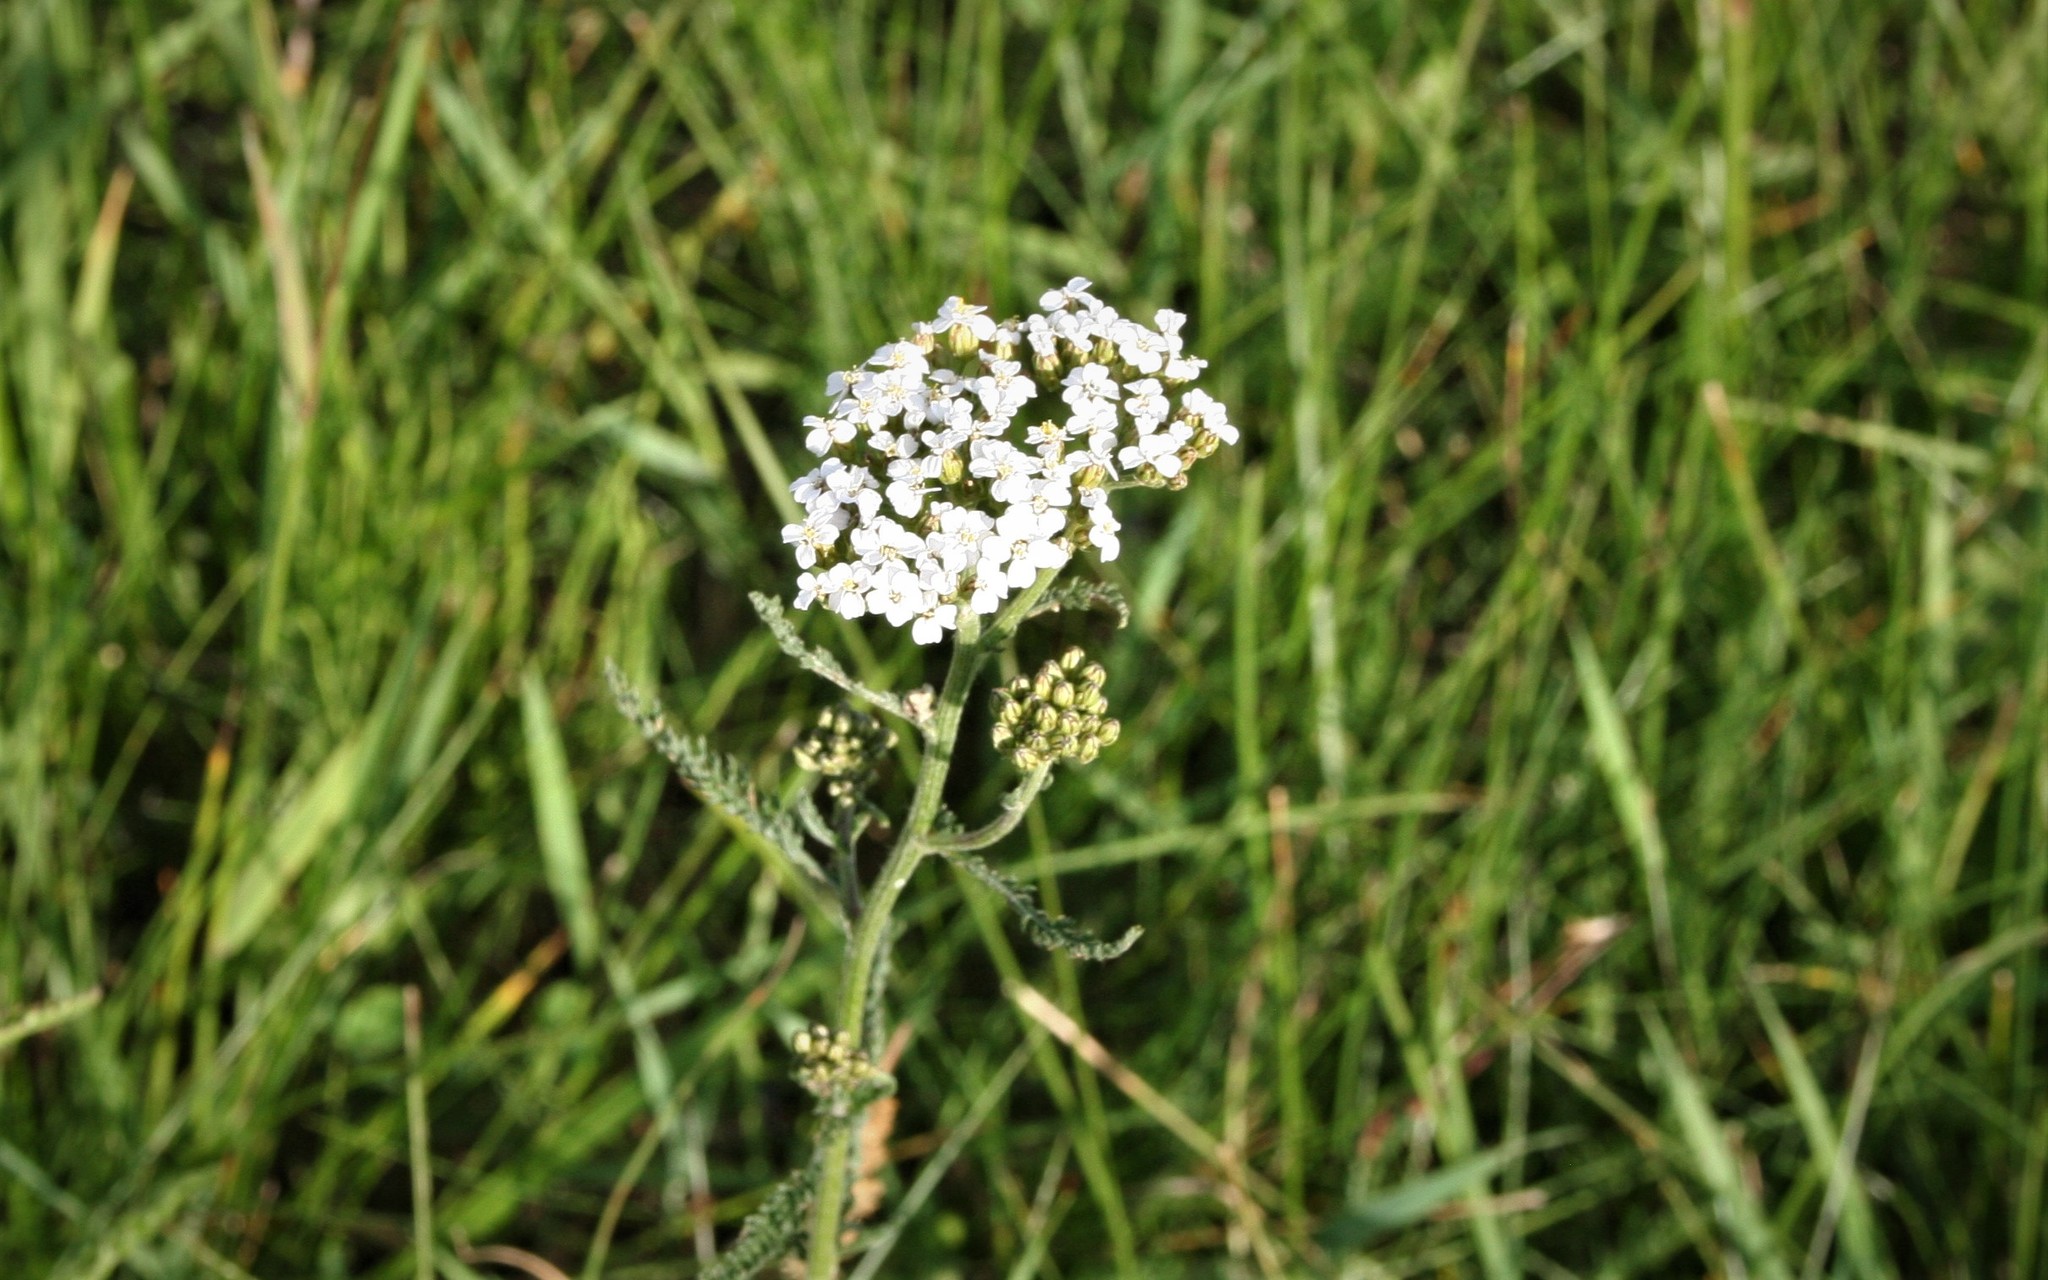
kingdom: Plantae
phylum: Tracheophyta
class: Magnoliopsida
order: Asterales
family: Asteraceae
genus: Achillea
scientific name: Achillea millefolium
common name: Yarrow
